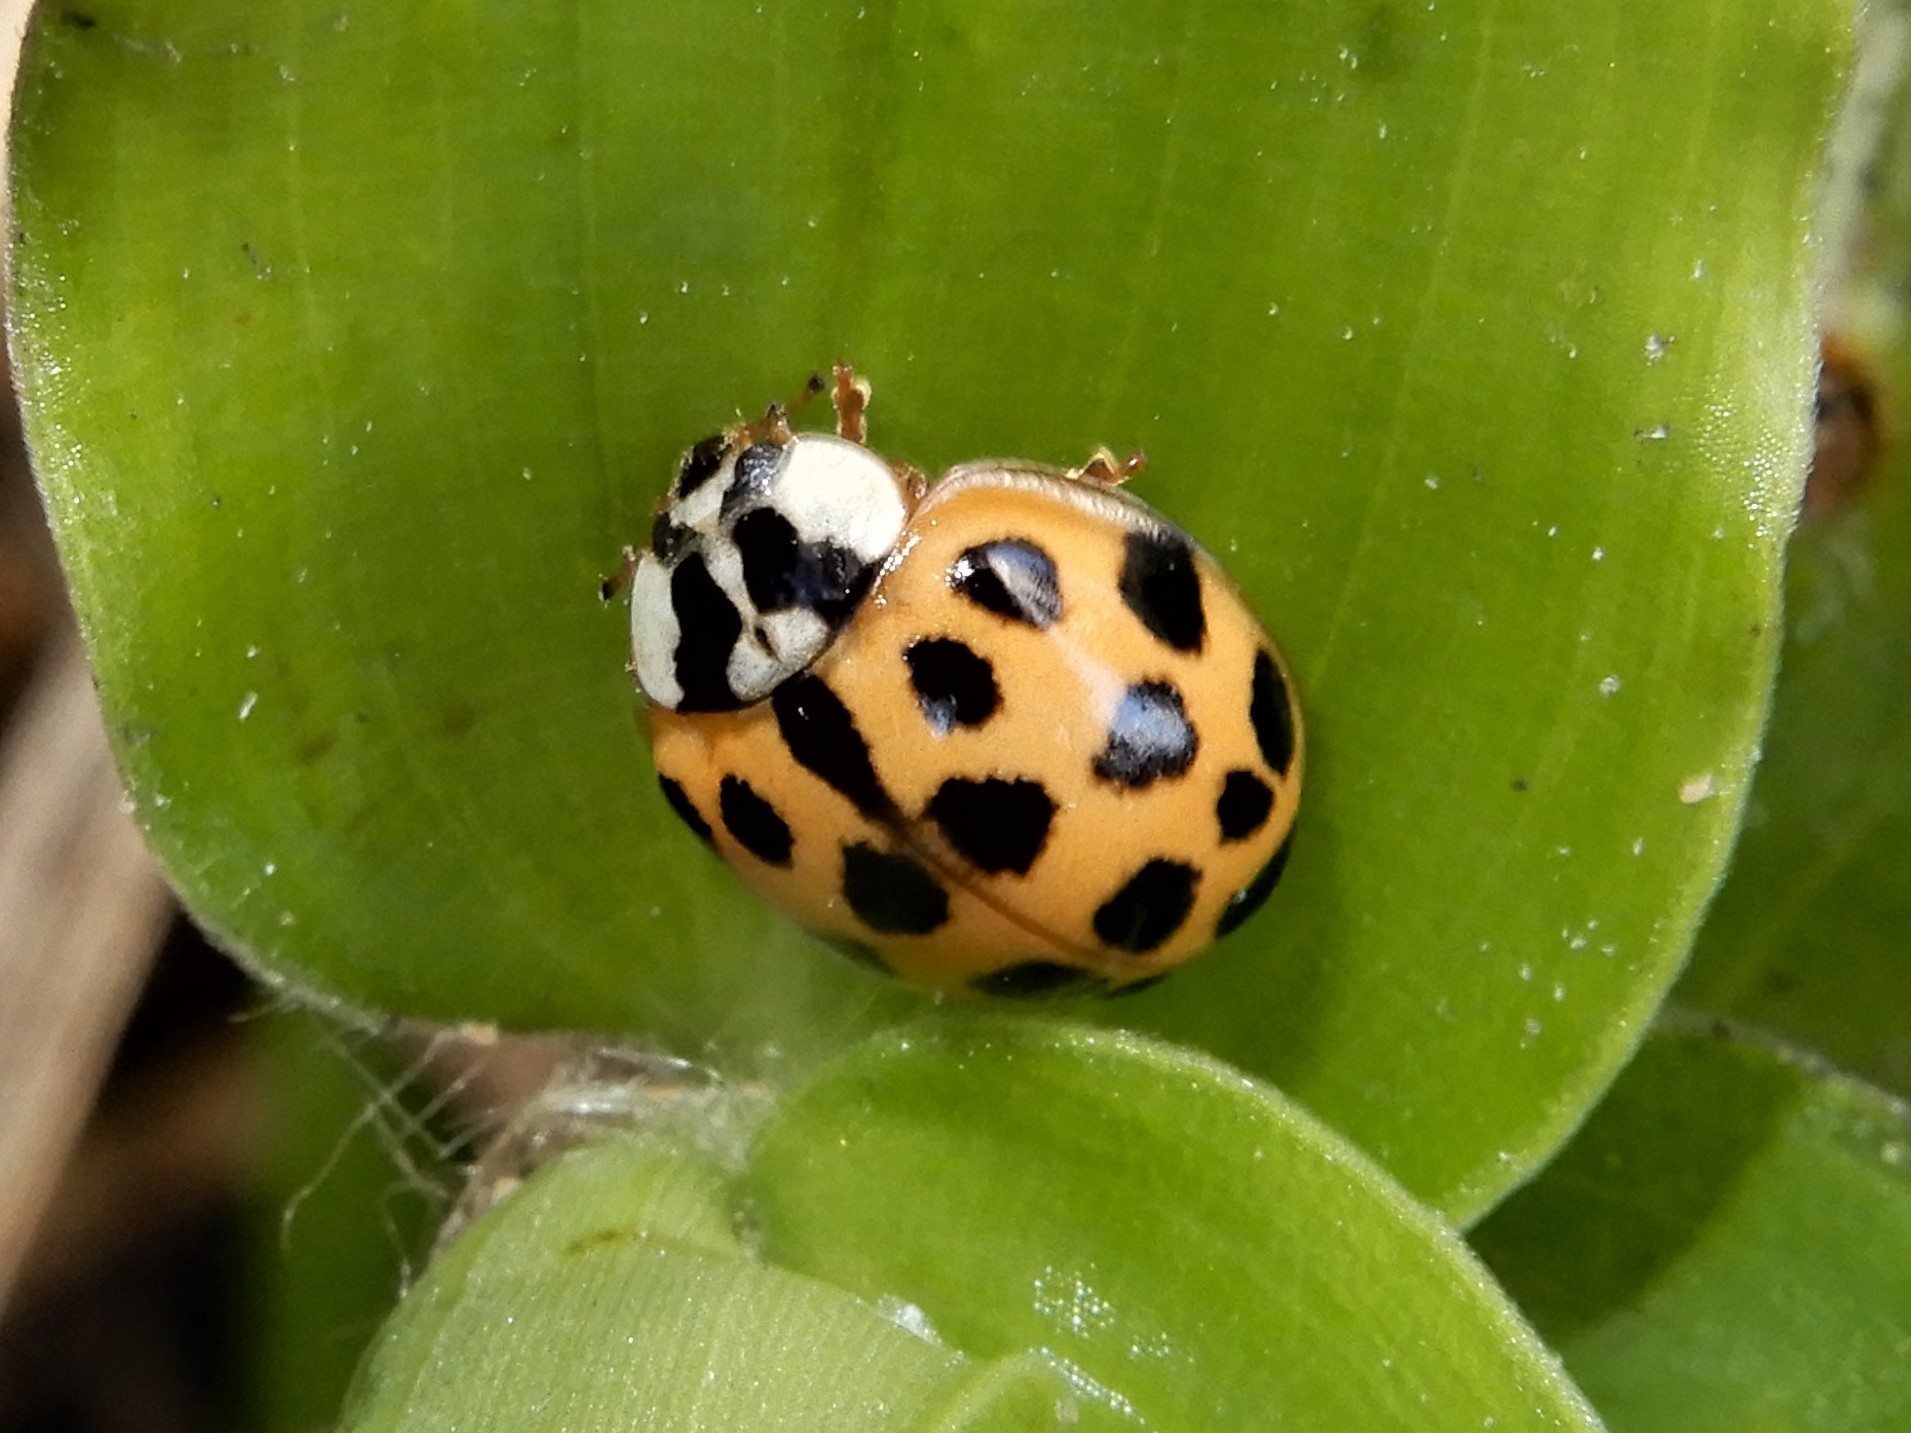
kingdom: Animalia
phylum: Arthropoda
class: Insecta
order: Coleoptera
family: Coccinellidae
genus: Harmonia
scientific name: Harmonia axyridis
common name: Harlequin ladybird
